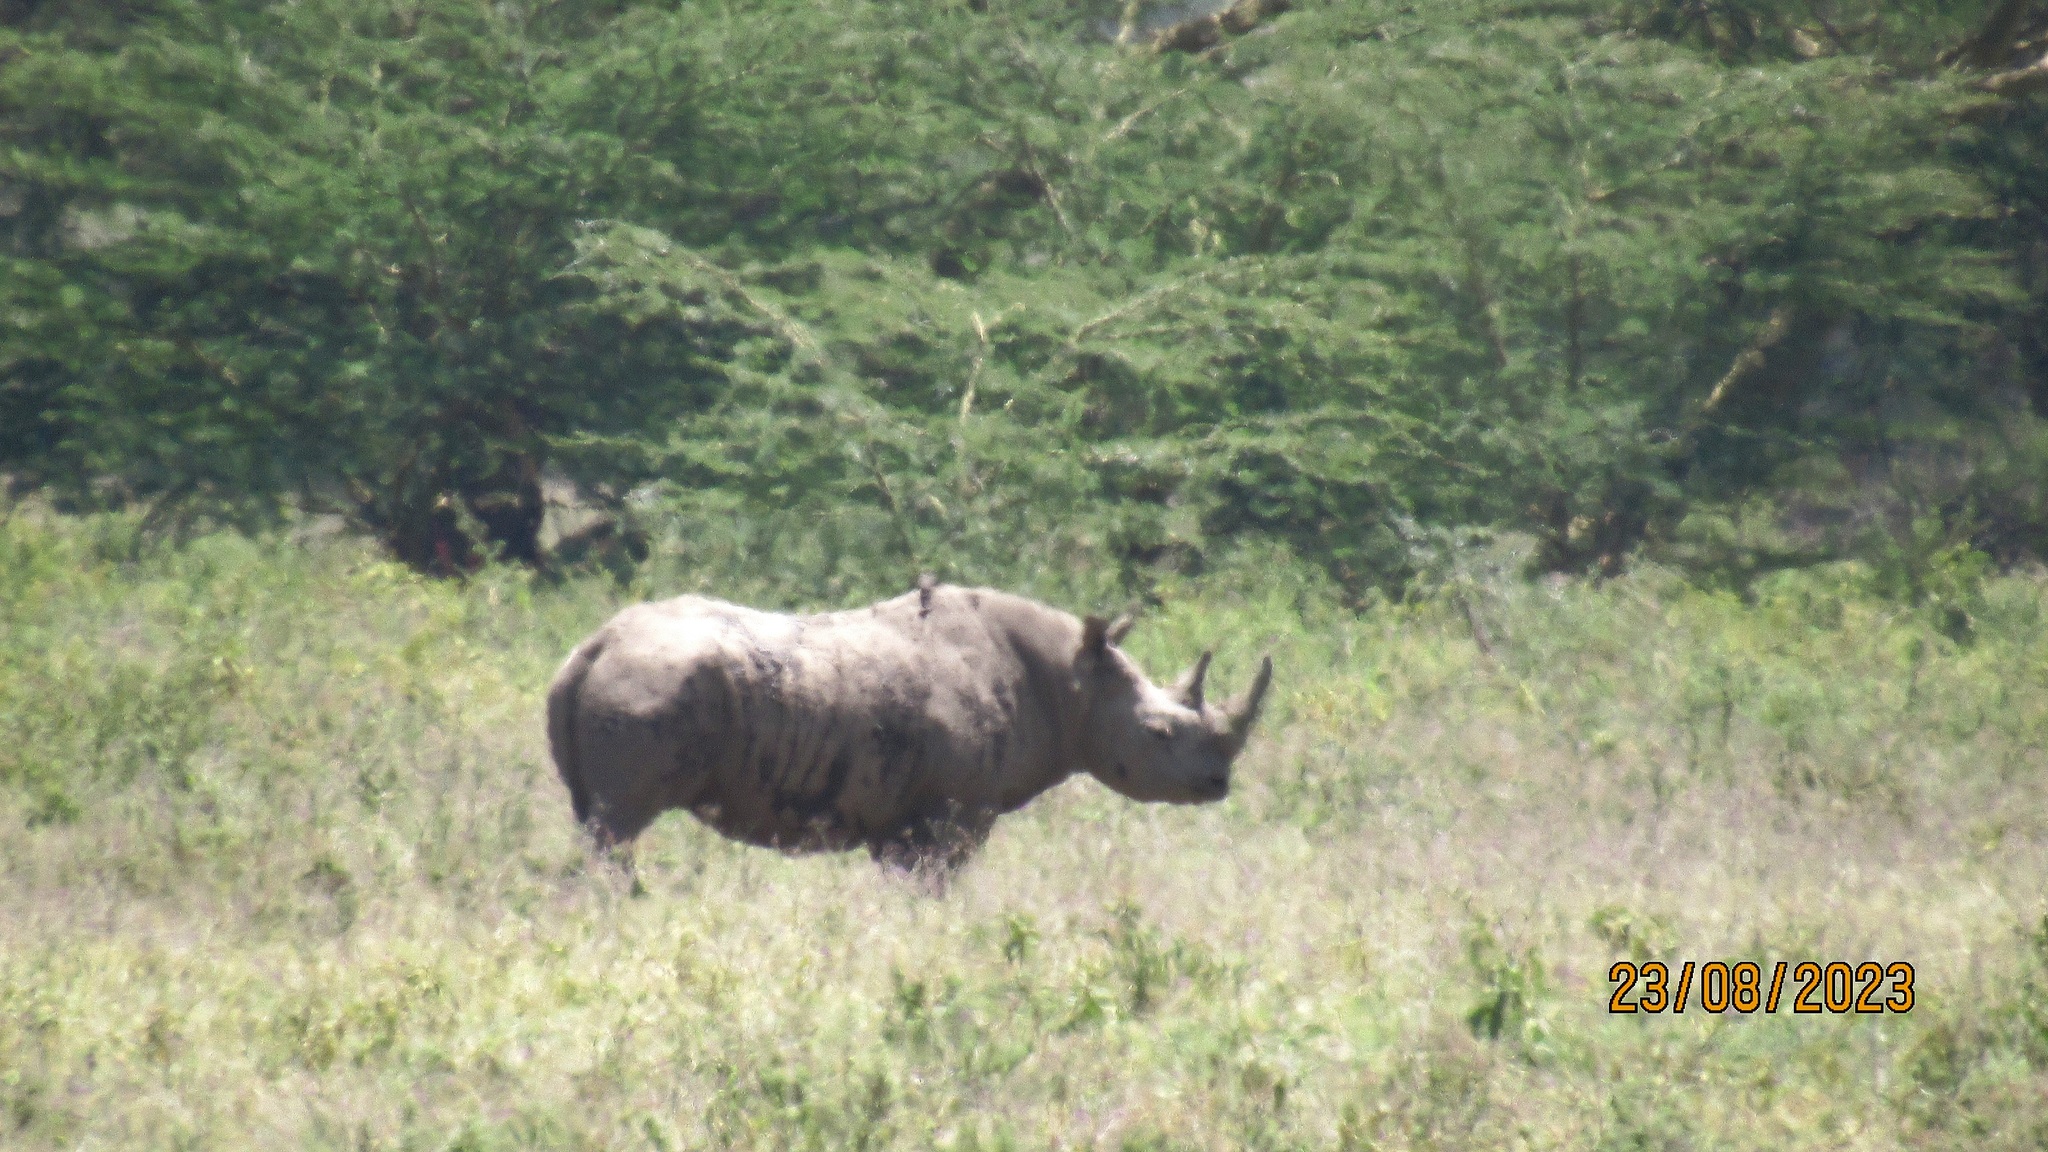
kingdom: Animalia
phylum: Chordata
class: Mammalia
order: Perissodactyla
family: Rhinocerotidae
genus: Diceros
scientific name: Diceros bicornis
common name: Black rhinoceros
